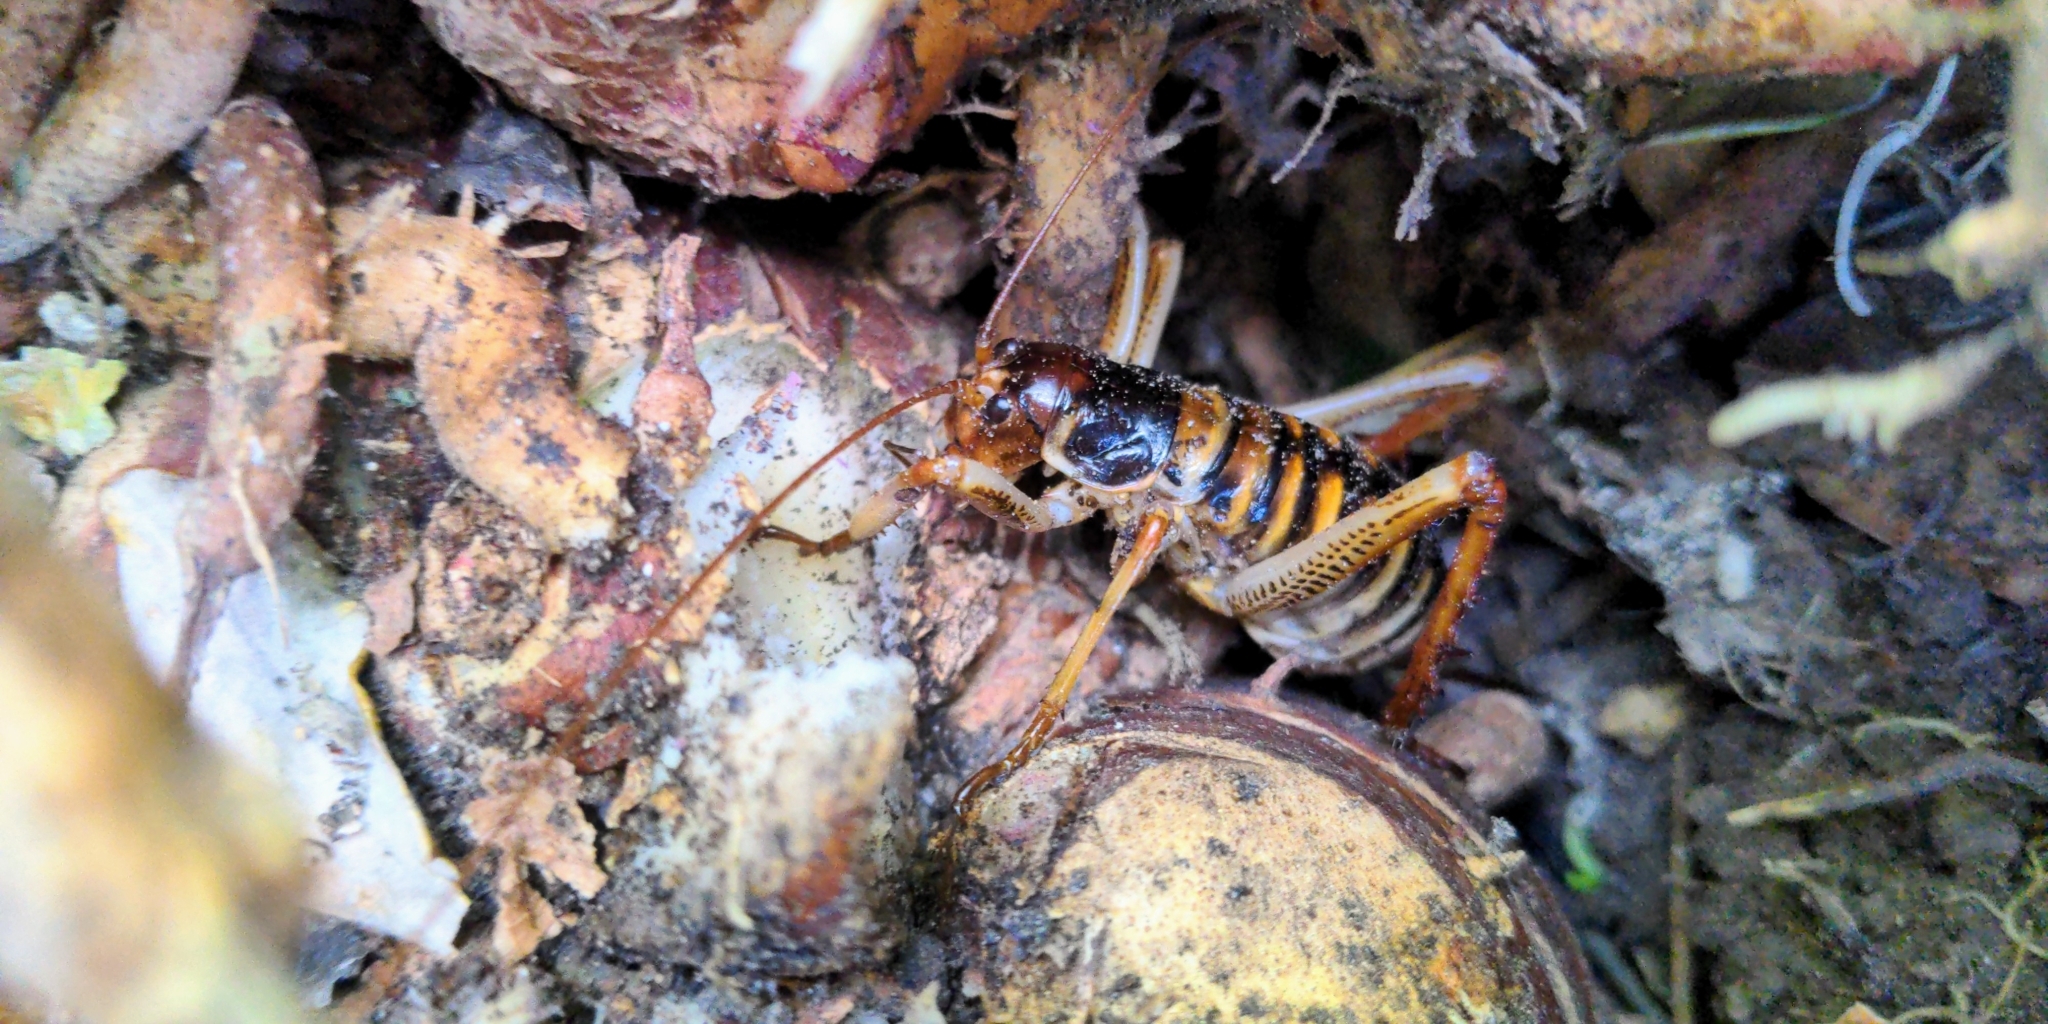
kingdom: Animalia
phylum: Arthropoda
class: Insecta
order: Orthoptera
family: Anostostomatidae
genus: Hemideina
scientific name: Hemideina crassidens
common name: Wellington tree weta
